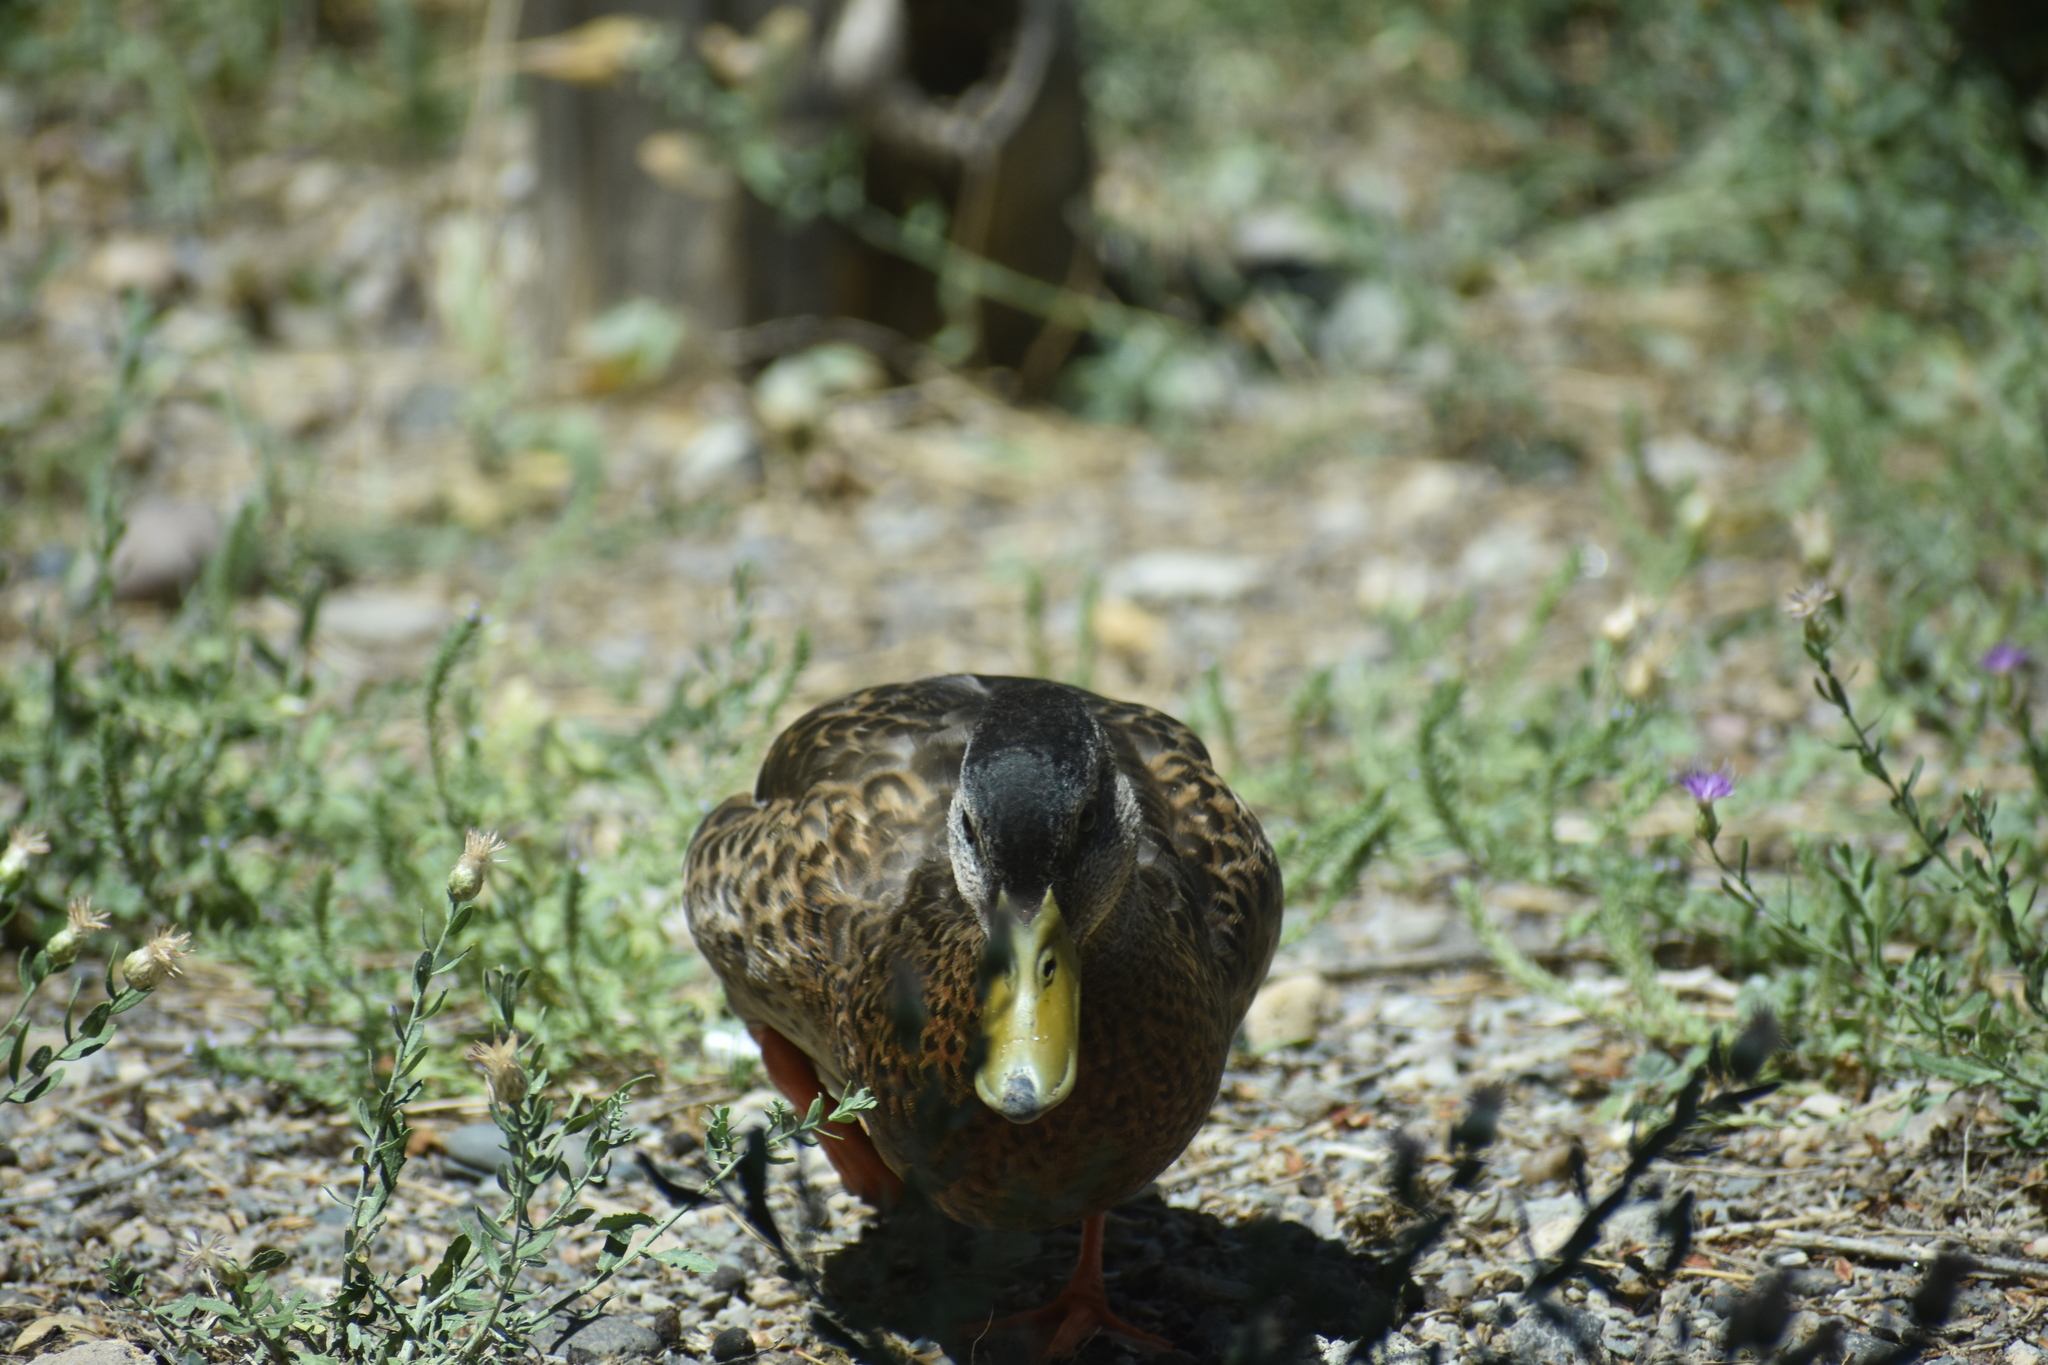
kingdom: Animalia
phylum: Chordata
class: Aves
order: Anseriformes
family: Anatidae
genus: Anas
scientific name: Anas platyrhynchos
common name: Mallard
